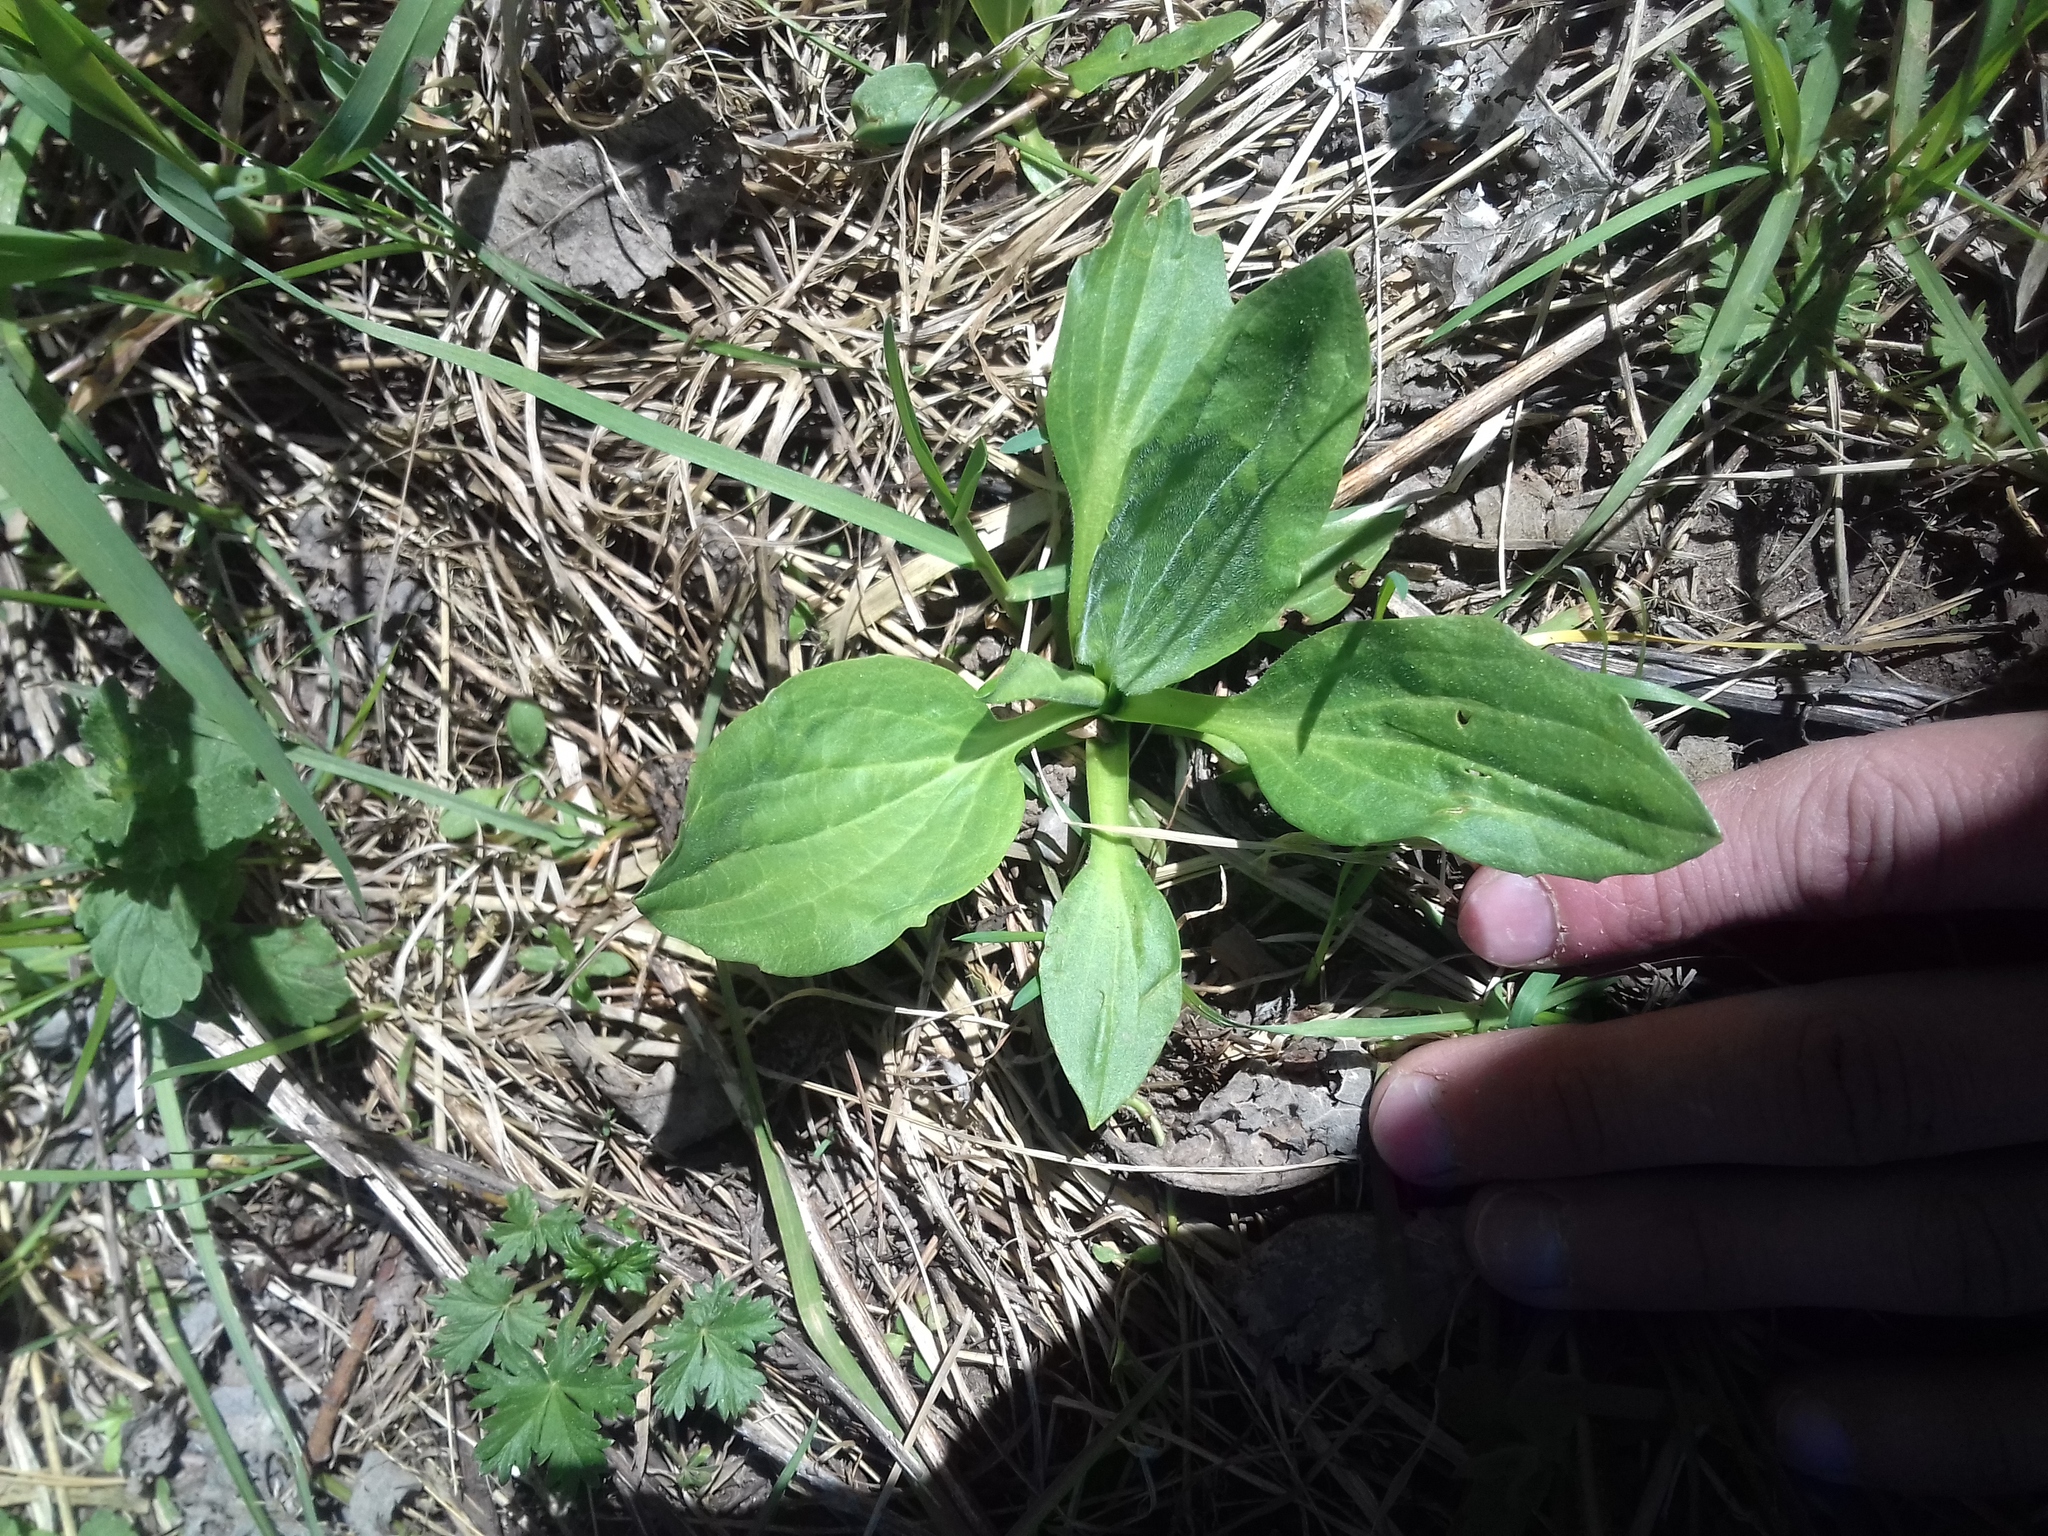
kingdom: Plantae
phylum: Tracheophyta
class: Magnoliopsida
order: Lamiales
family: Plantaginaceae
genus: Plantago
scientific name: Plantago major
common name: Common plantain
